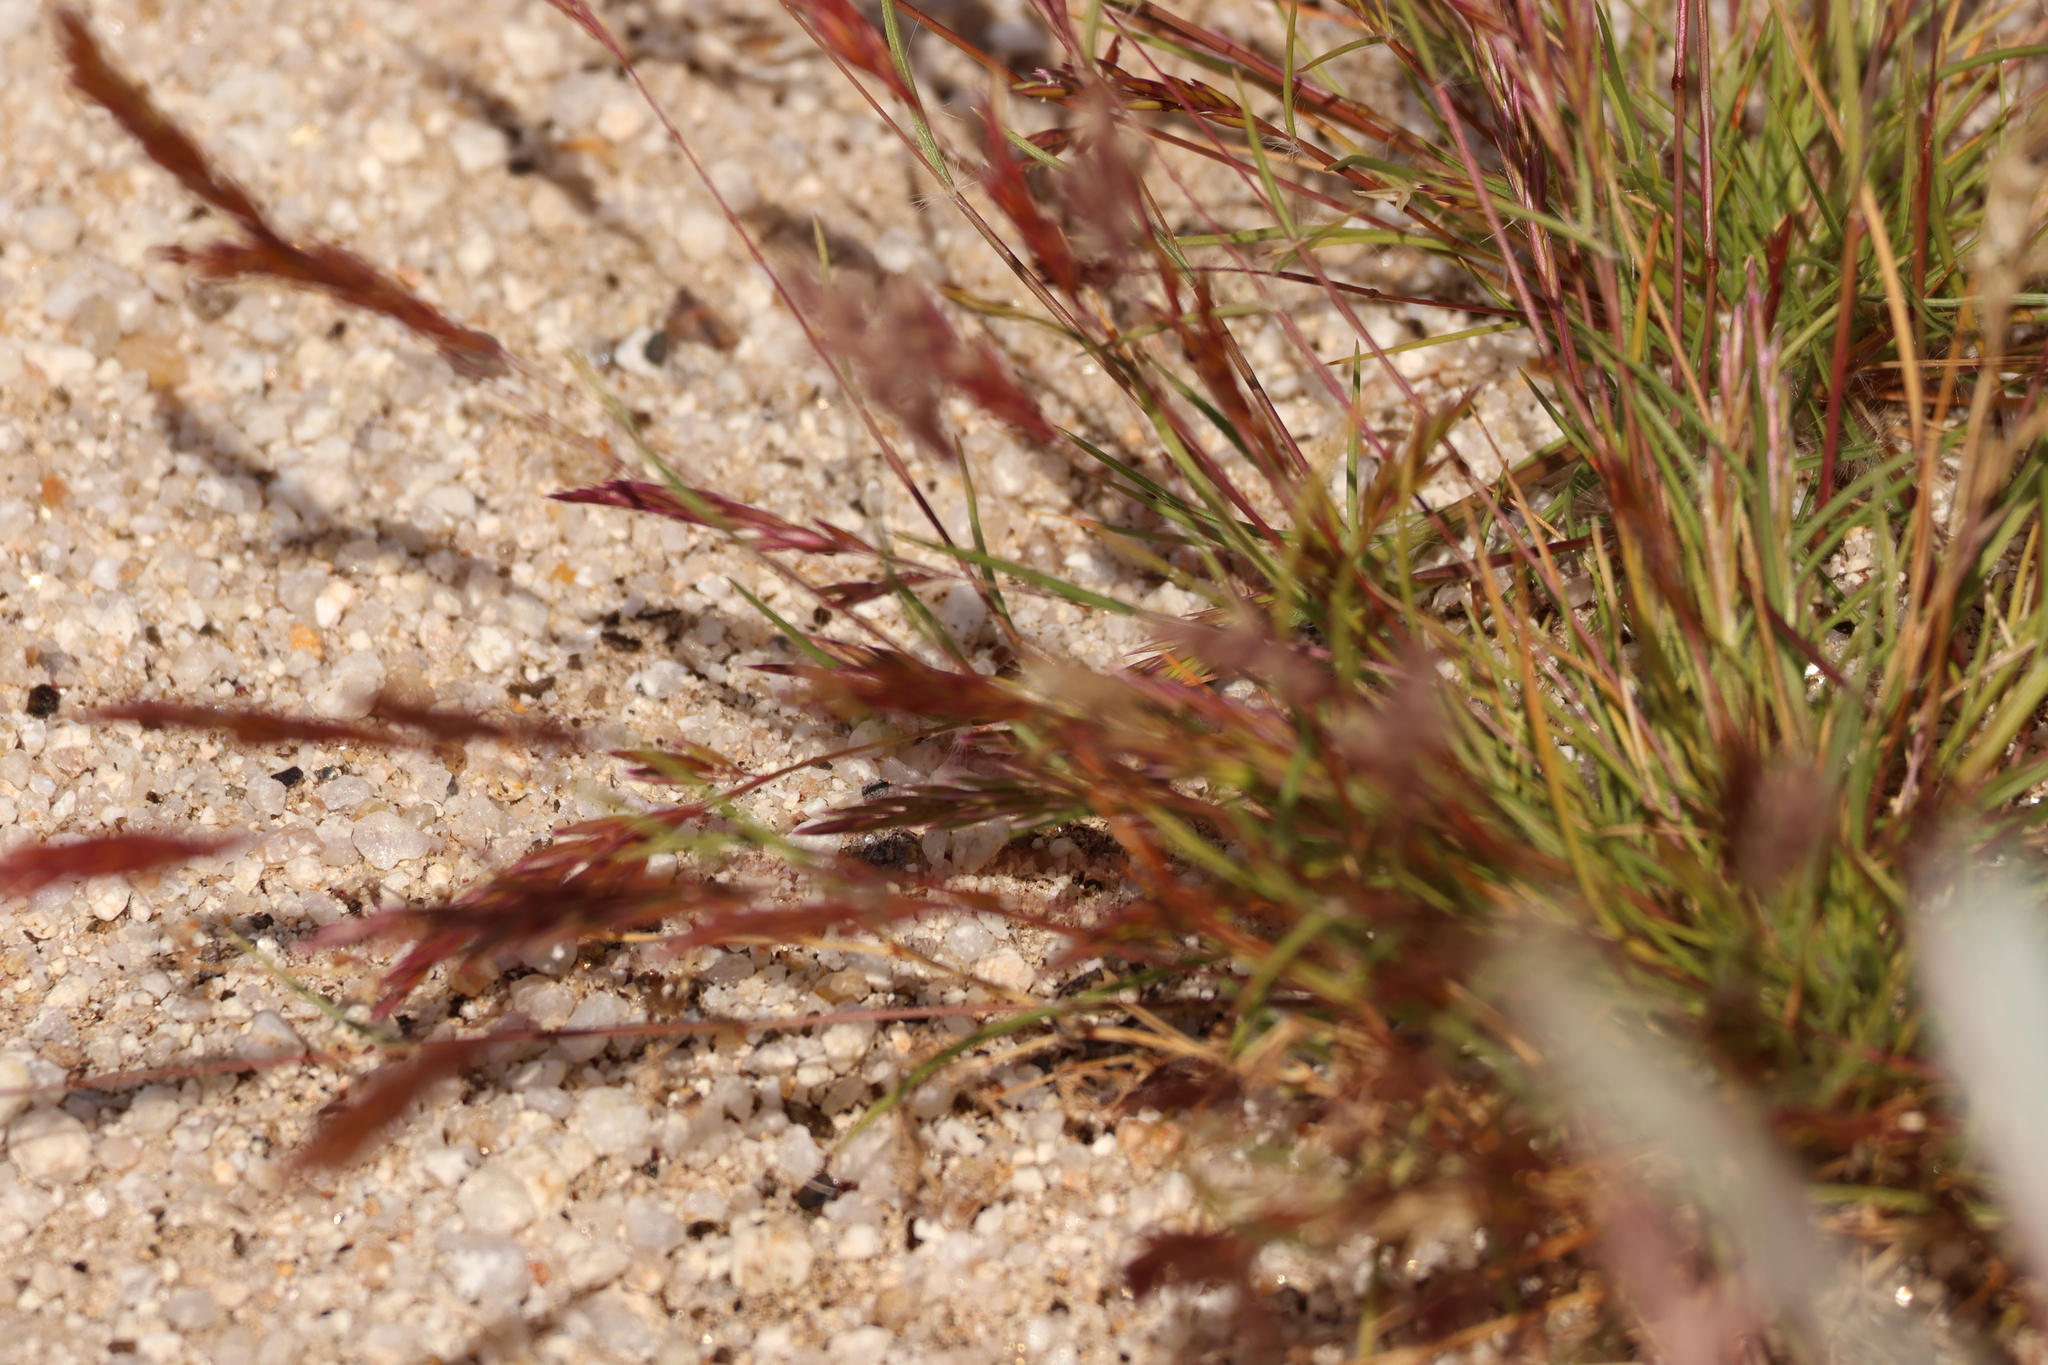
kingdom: Plantae
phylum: Tracheophyta
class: Liliopsida
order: Poales
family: Poaceae
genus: Schismus
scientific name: Schismus arabicus
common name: Arabian schismus
